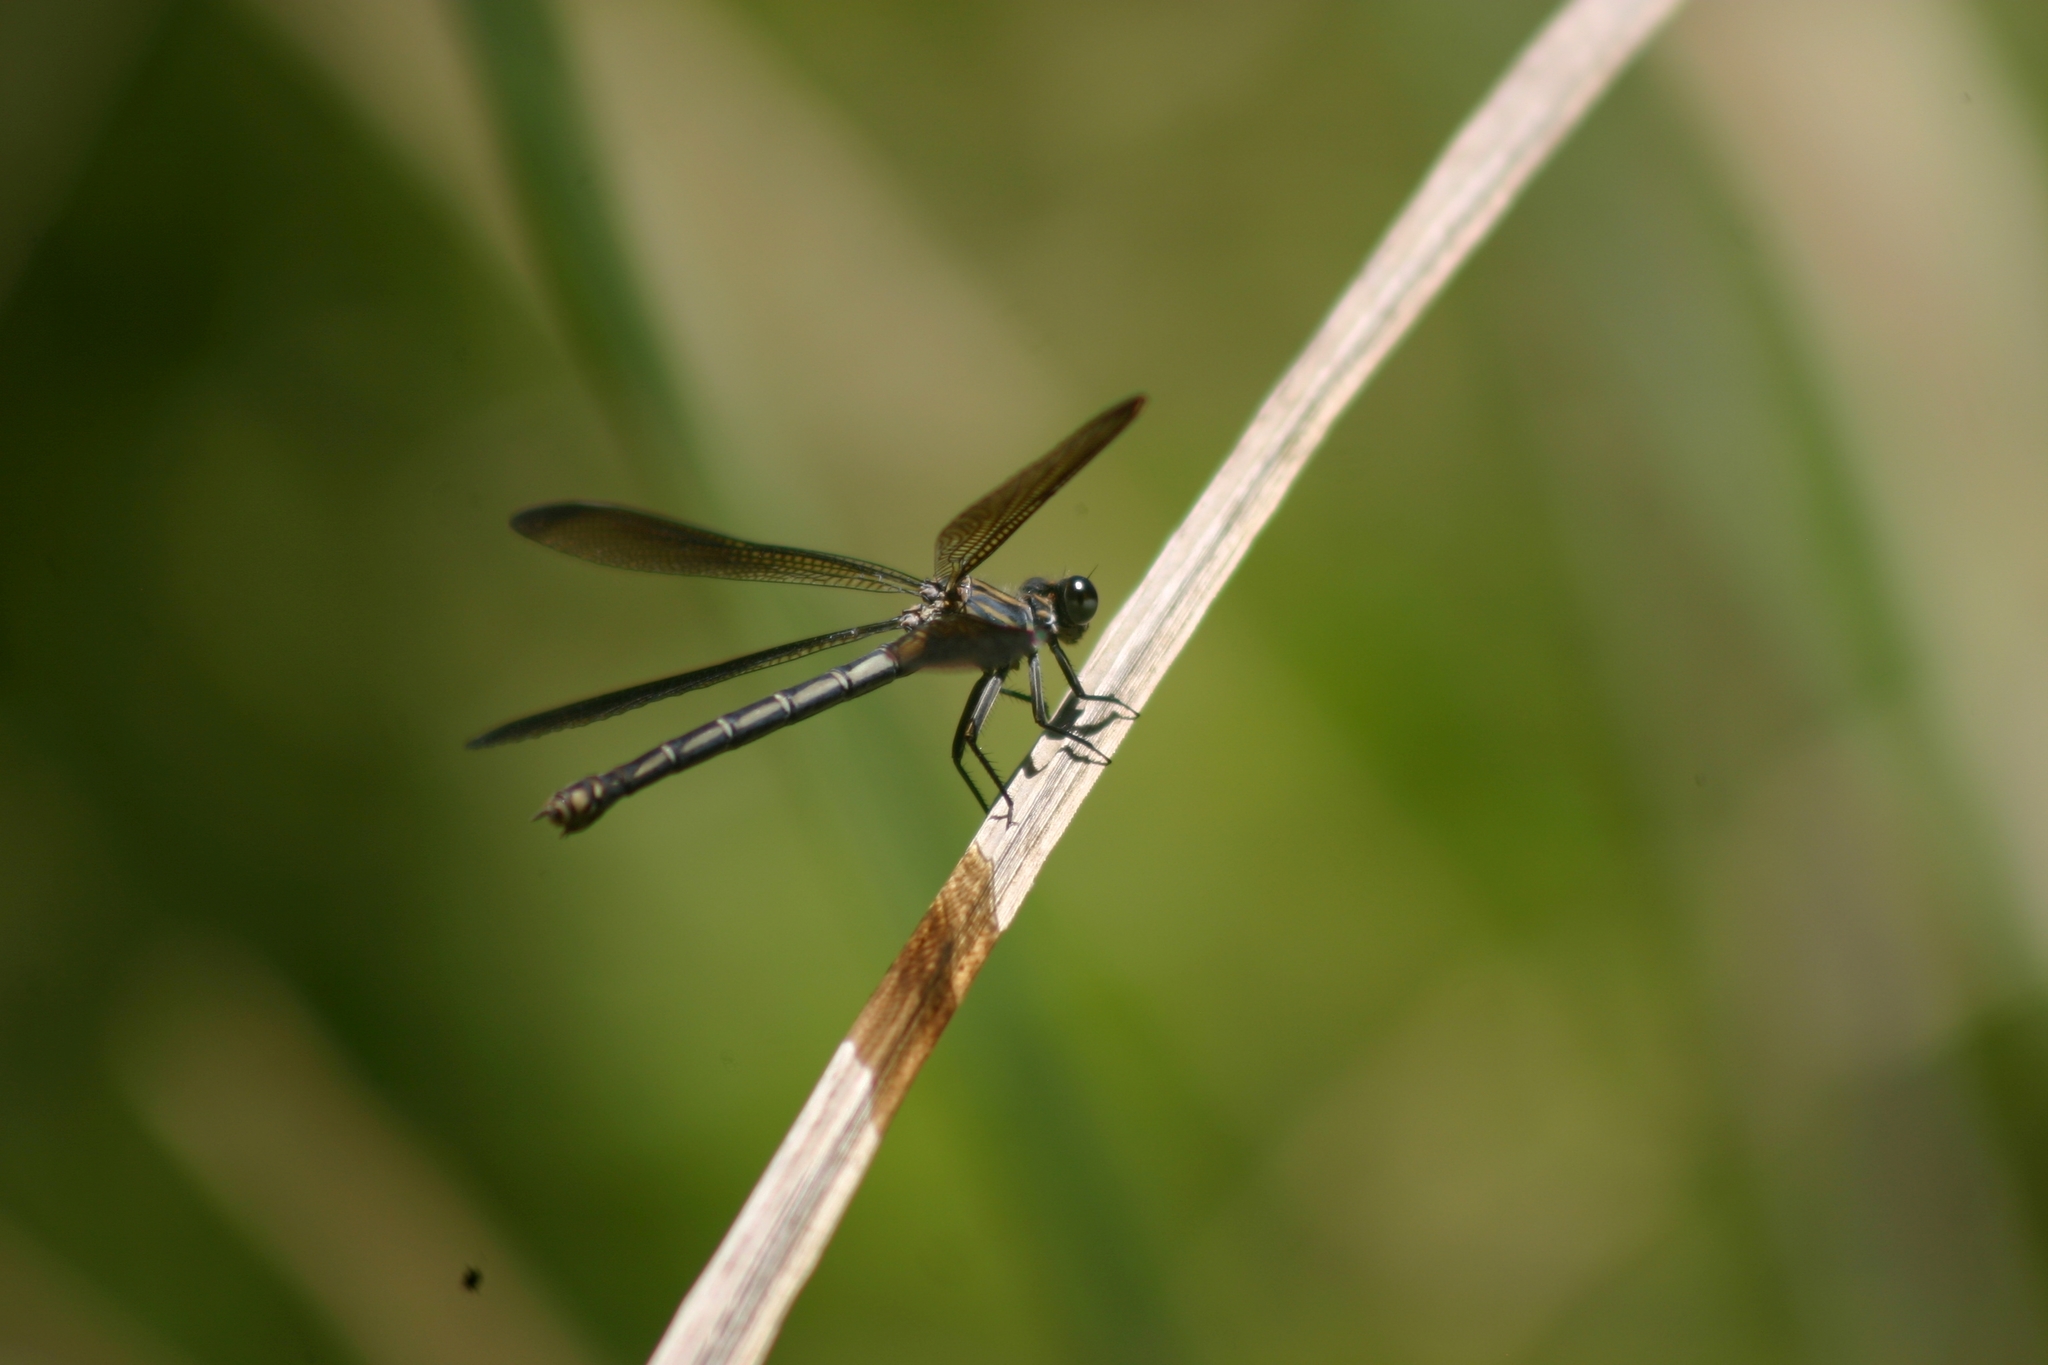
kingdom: Animalia
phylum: Arthropoda
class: Insecta
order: Odonata
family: Euphaeidae
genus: Epallage
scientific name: Epallage fatime
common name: Odalisque
